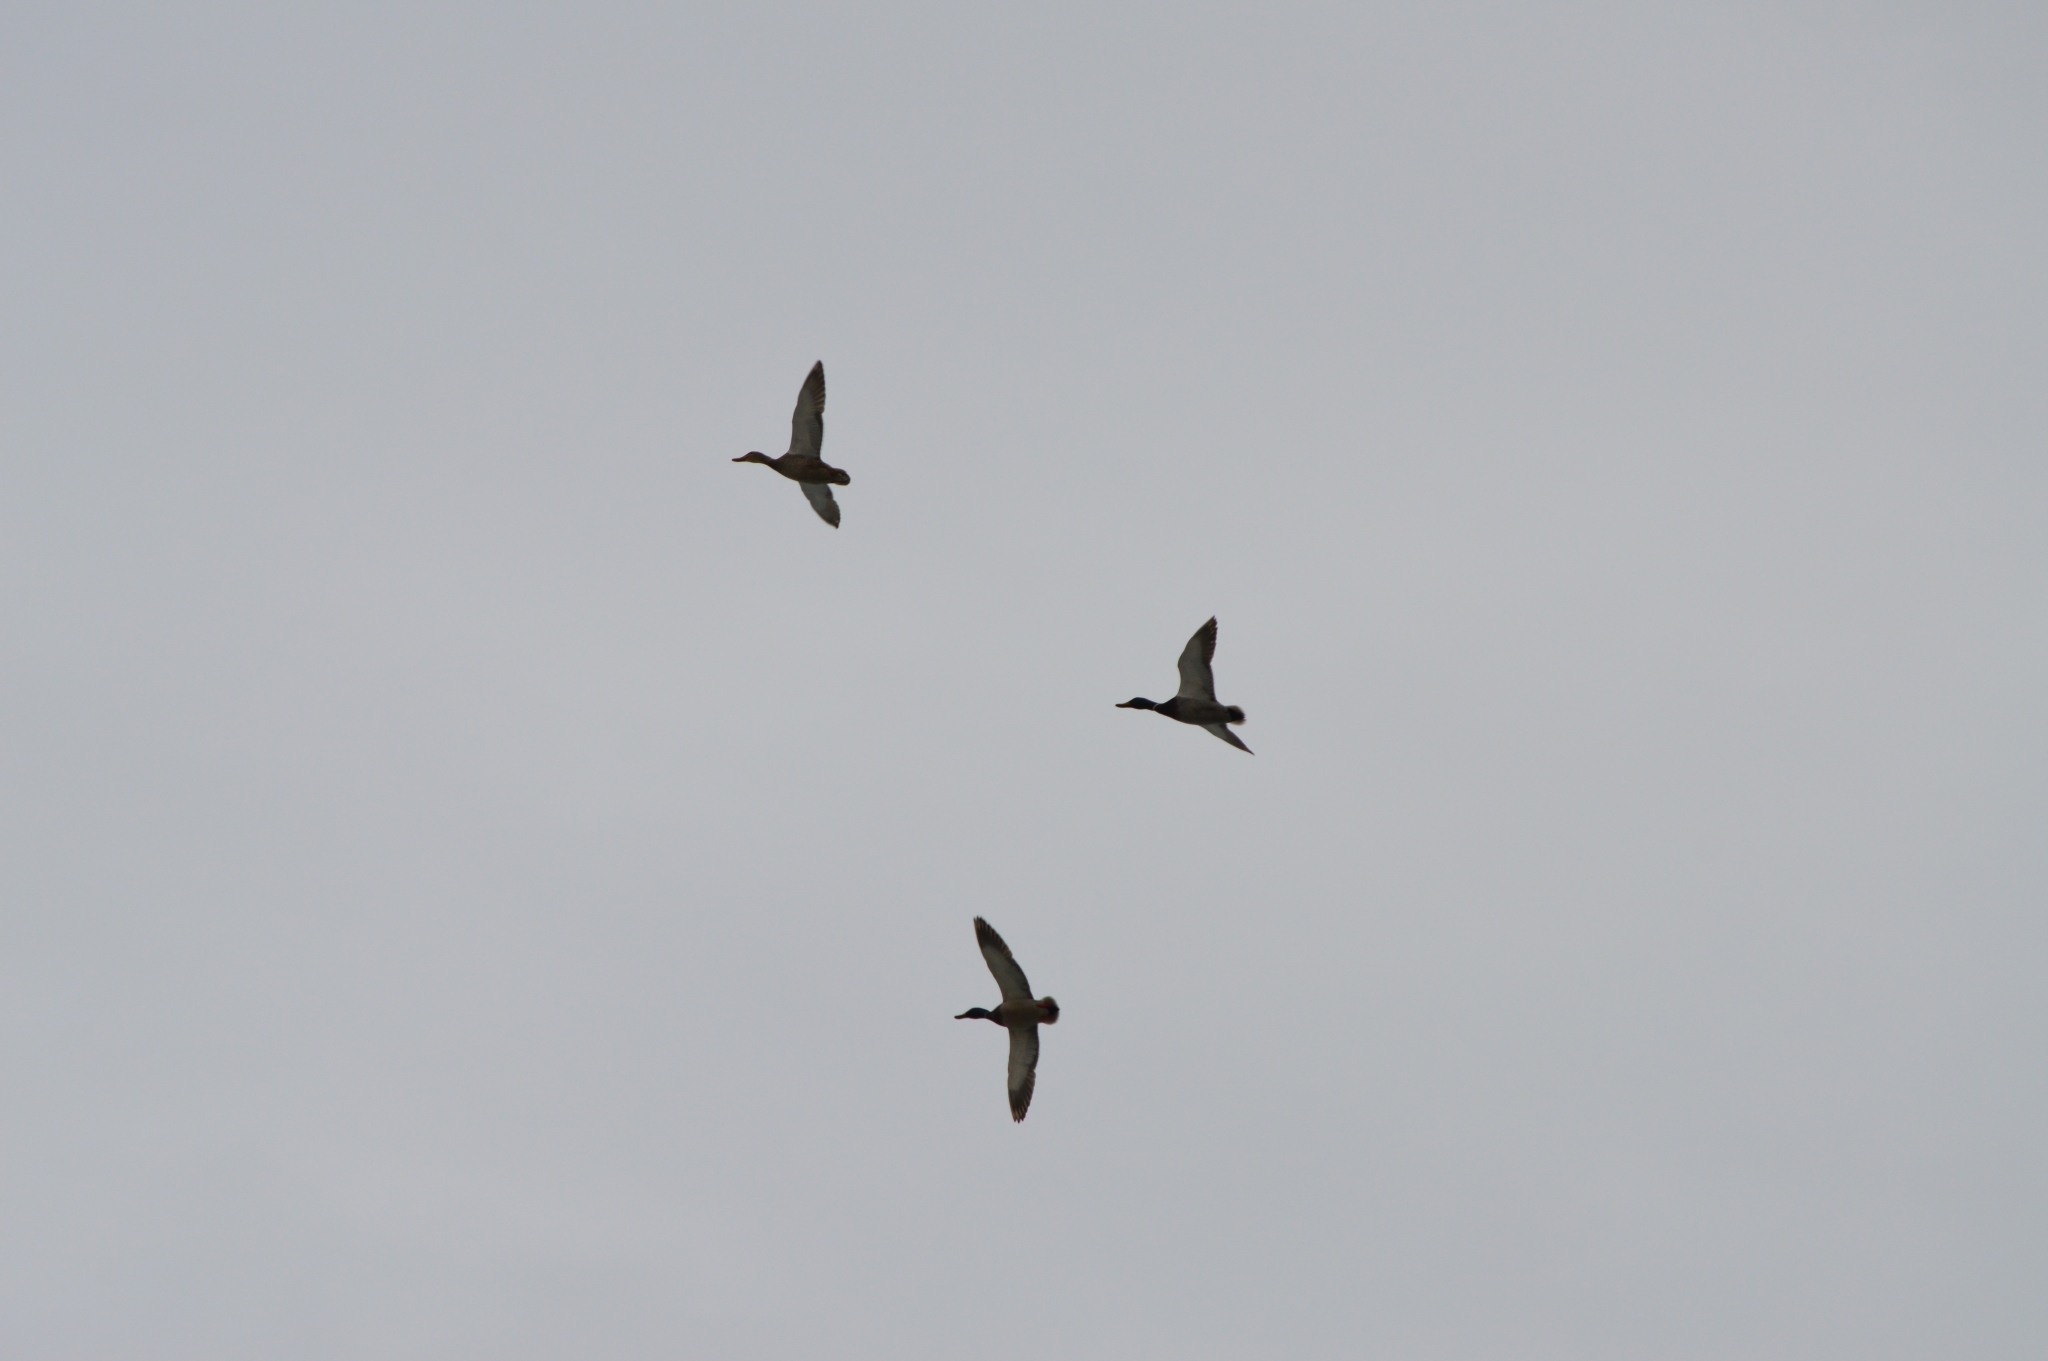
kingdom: Animalia
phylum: Chordata
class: Aves
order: Anseriformes
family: Anatidae
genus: Anas
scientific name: Anas platyrhynchos
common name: Mallard
